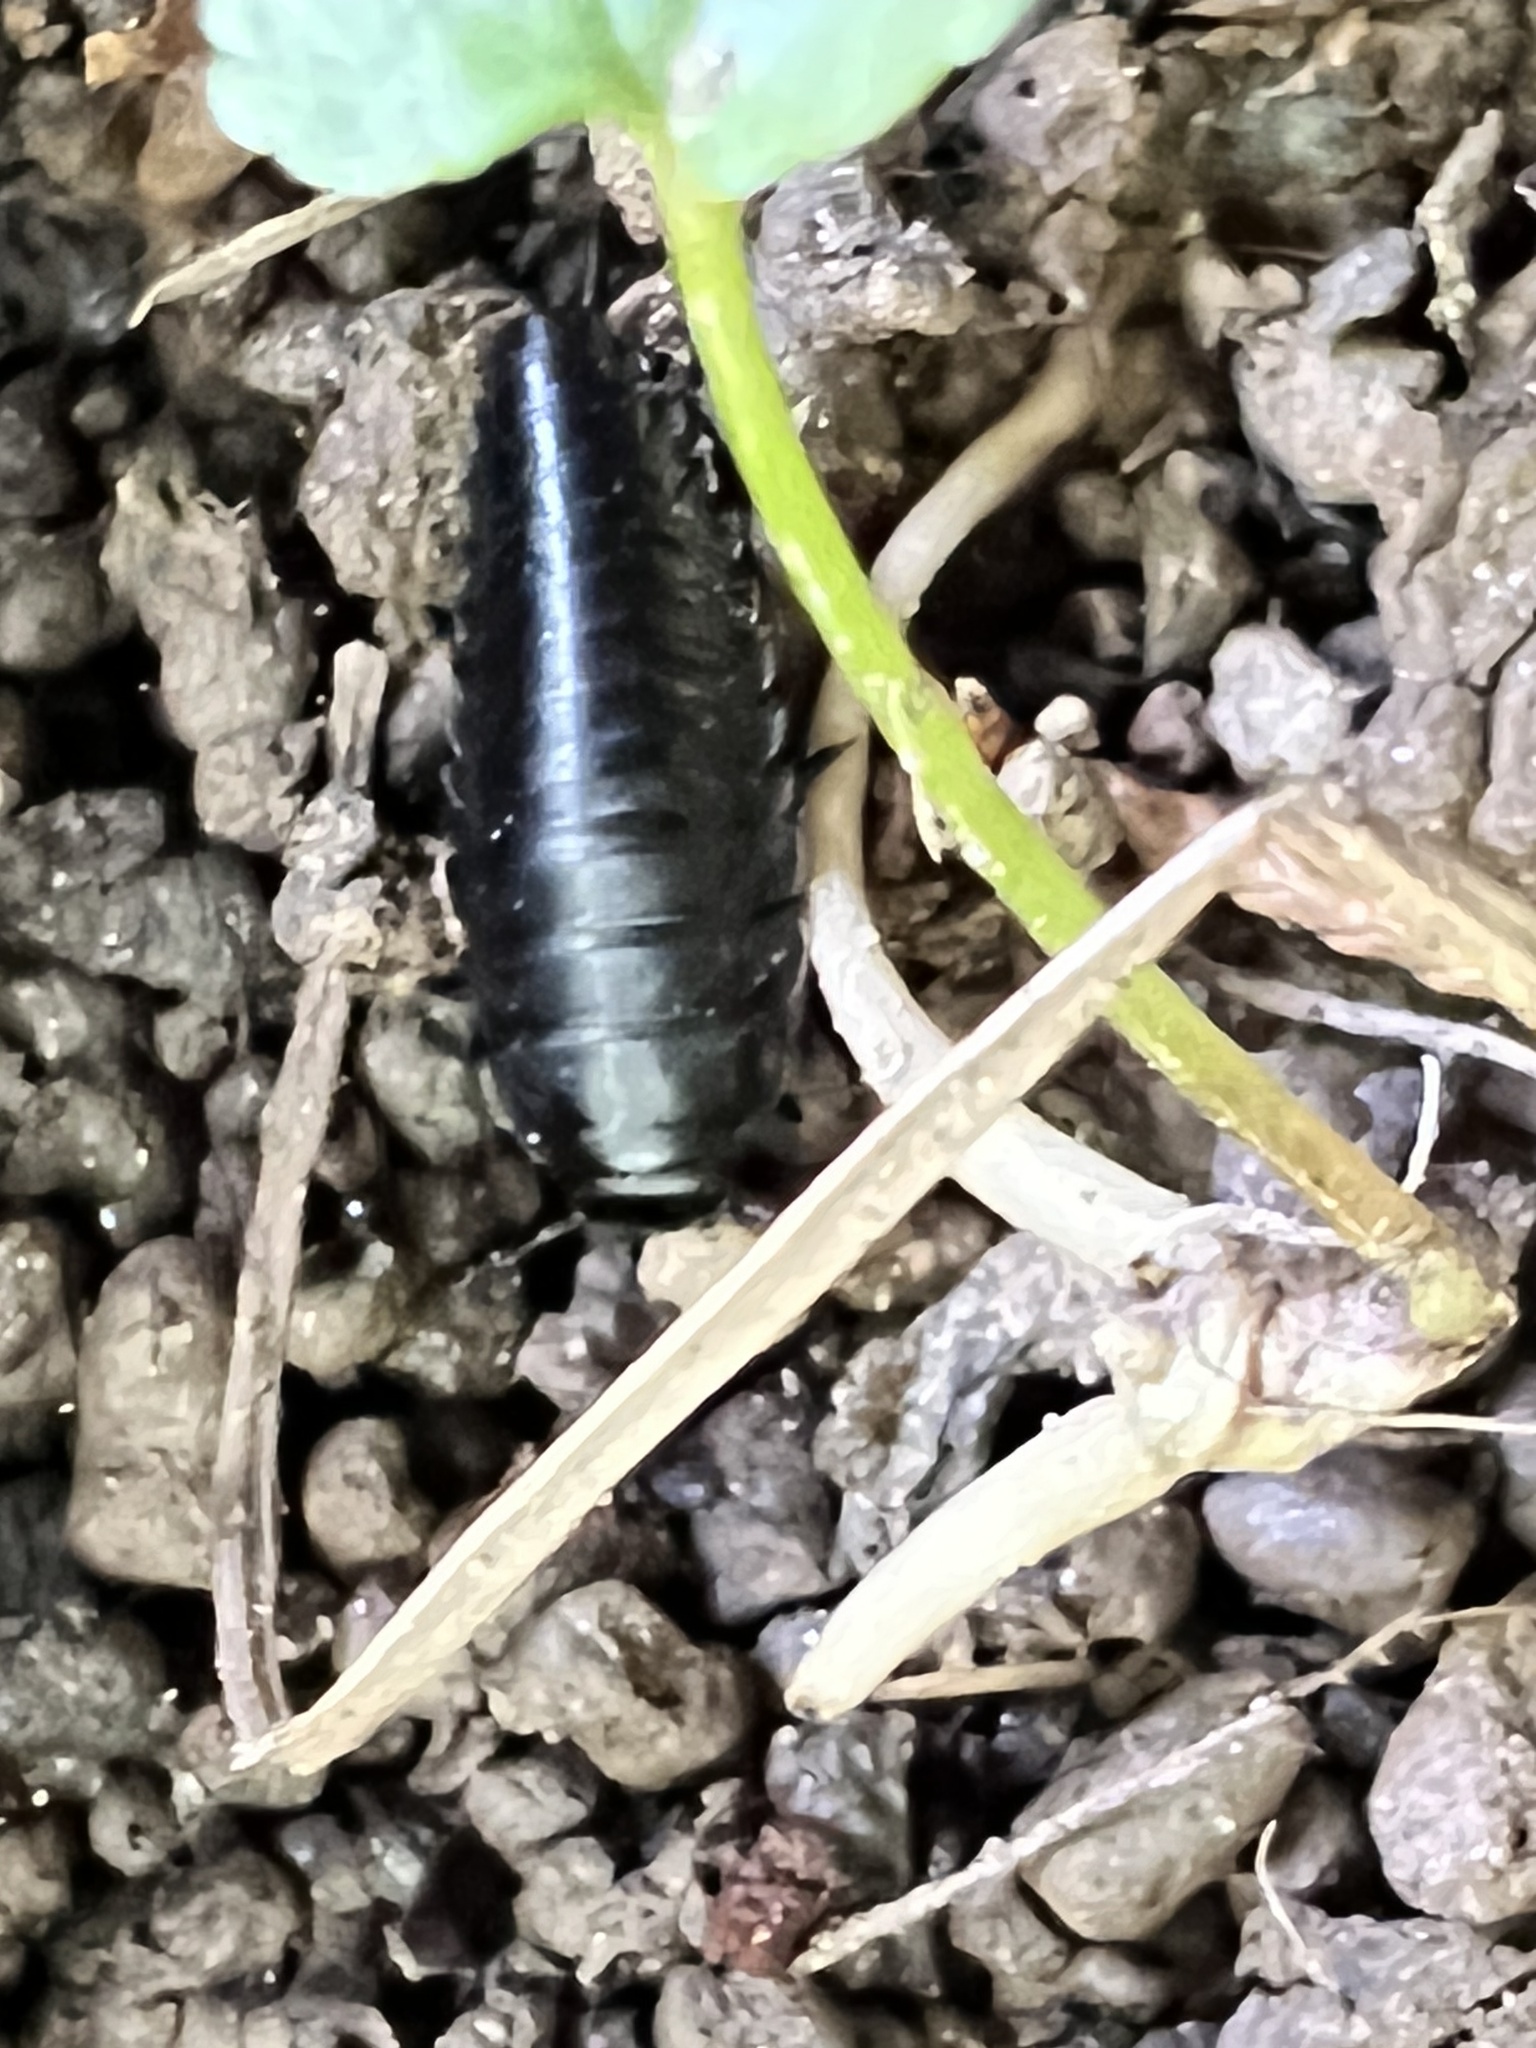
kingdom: Animalia
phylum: Arthropoda
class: Insecta
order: Coleoptera
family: Staphylinidae
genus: Oiceoptoma
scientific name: Oiceoptoma inaequale
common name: Ridged carrion beetle
